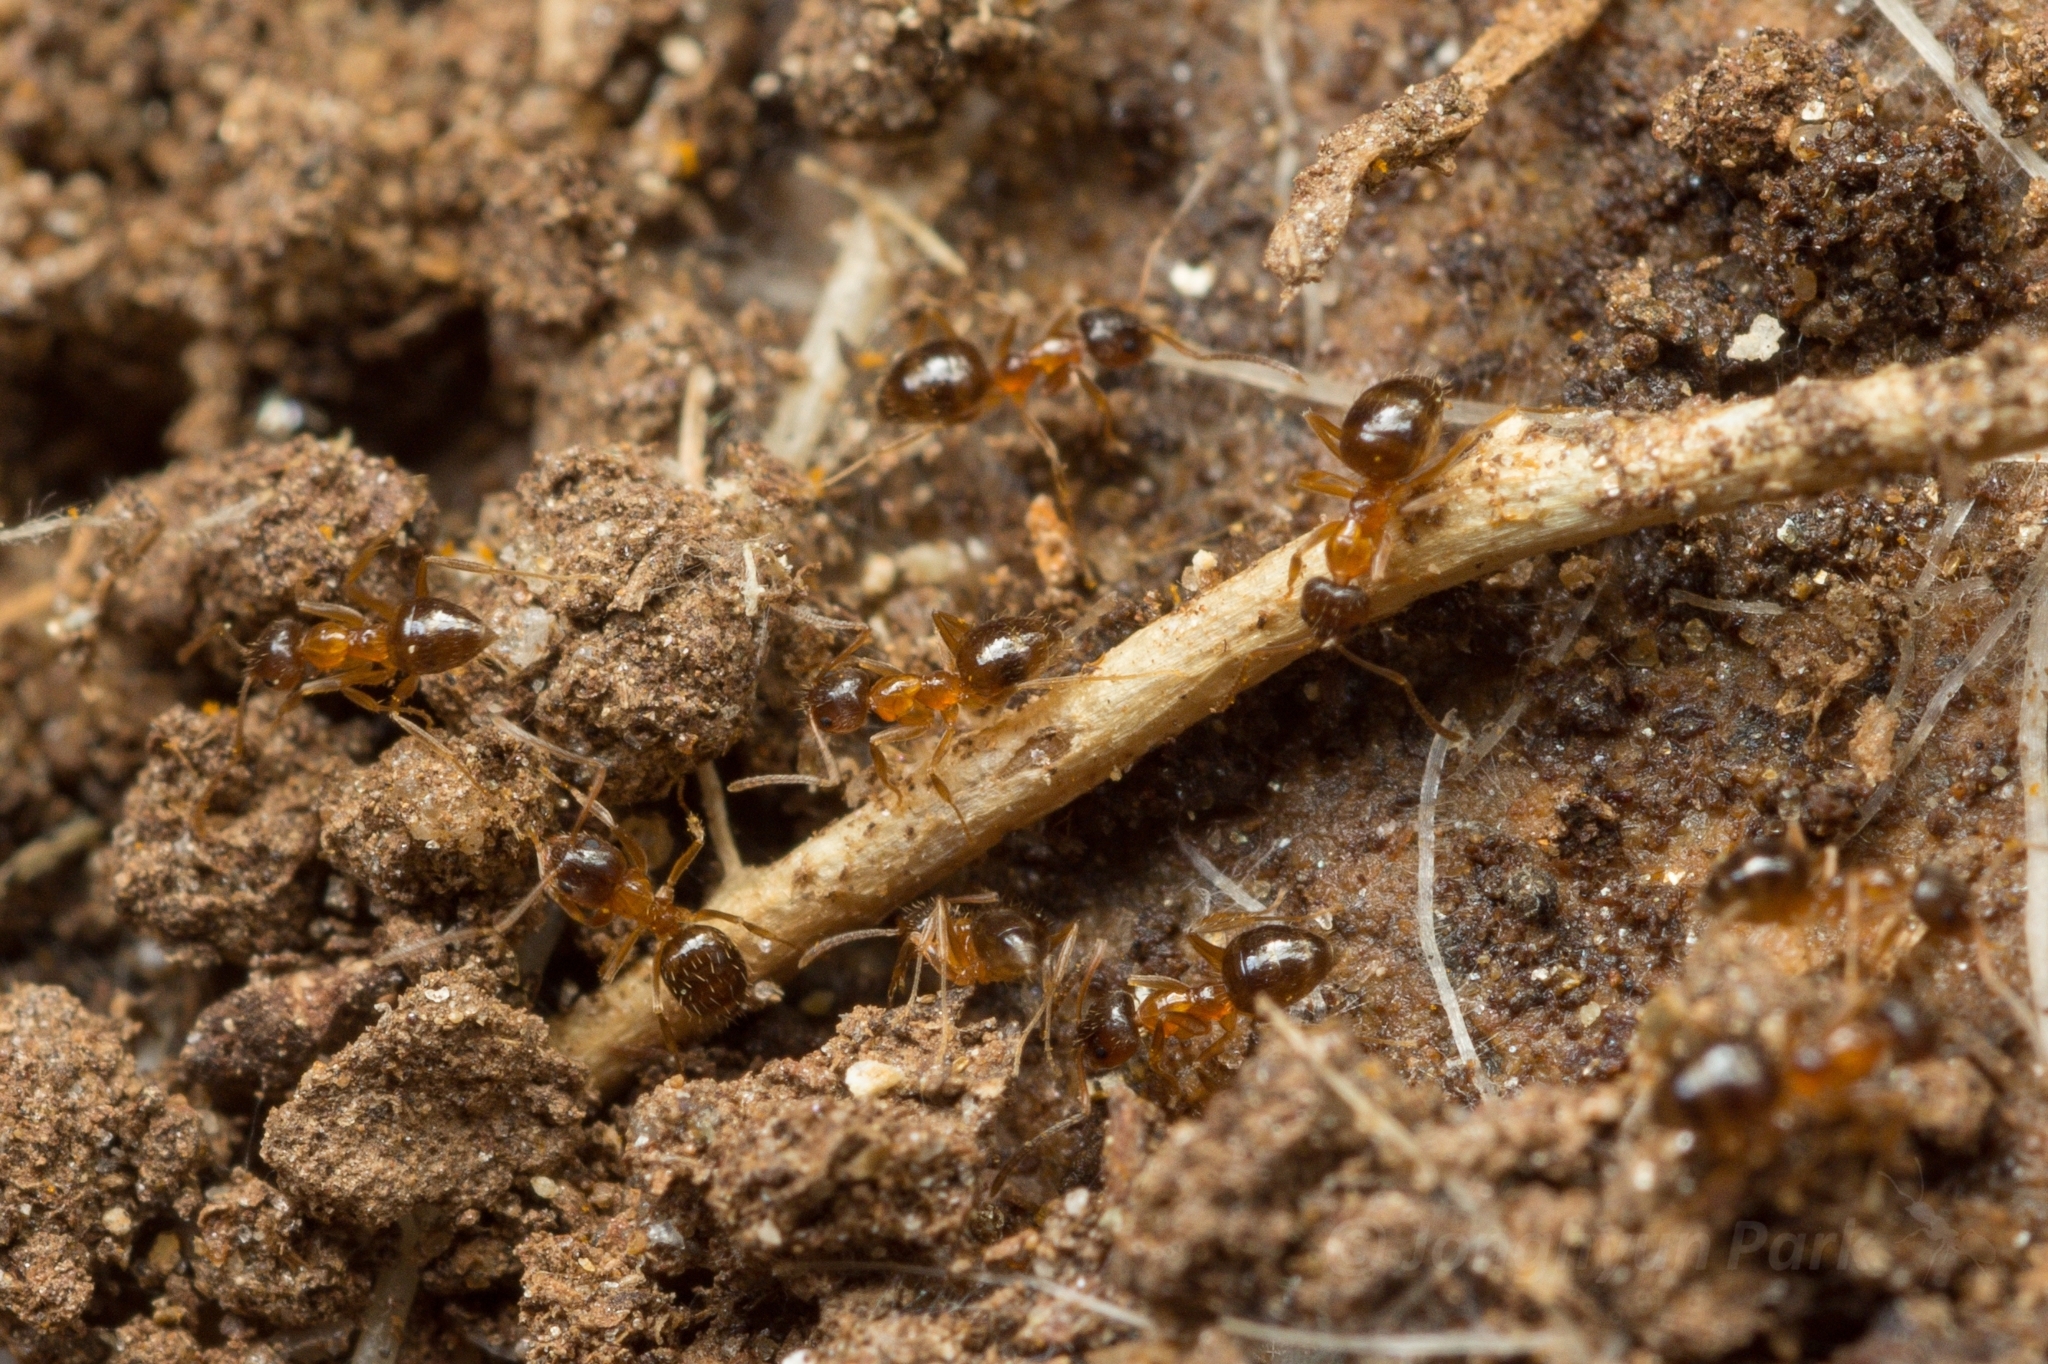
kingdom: Animalia
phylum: Arthropoda
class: Insecta
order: Hymenoptera
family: Formicidae
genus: Paratrechina
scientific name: Paratrechina flavipes
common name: Eastern asian formicine ant
